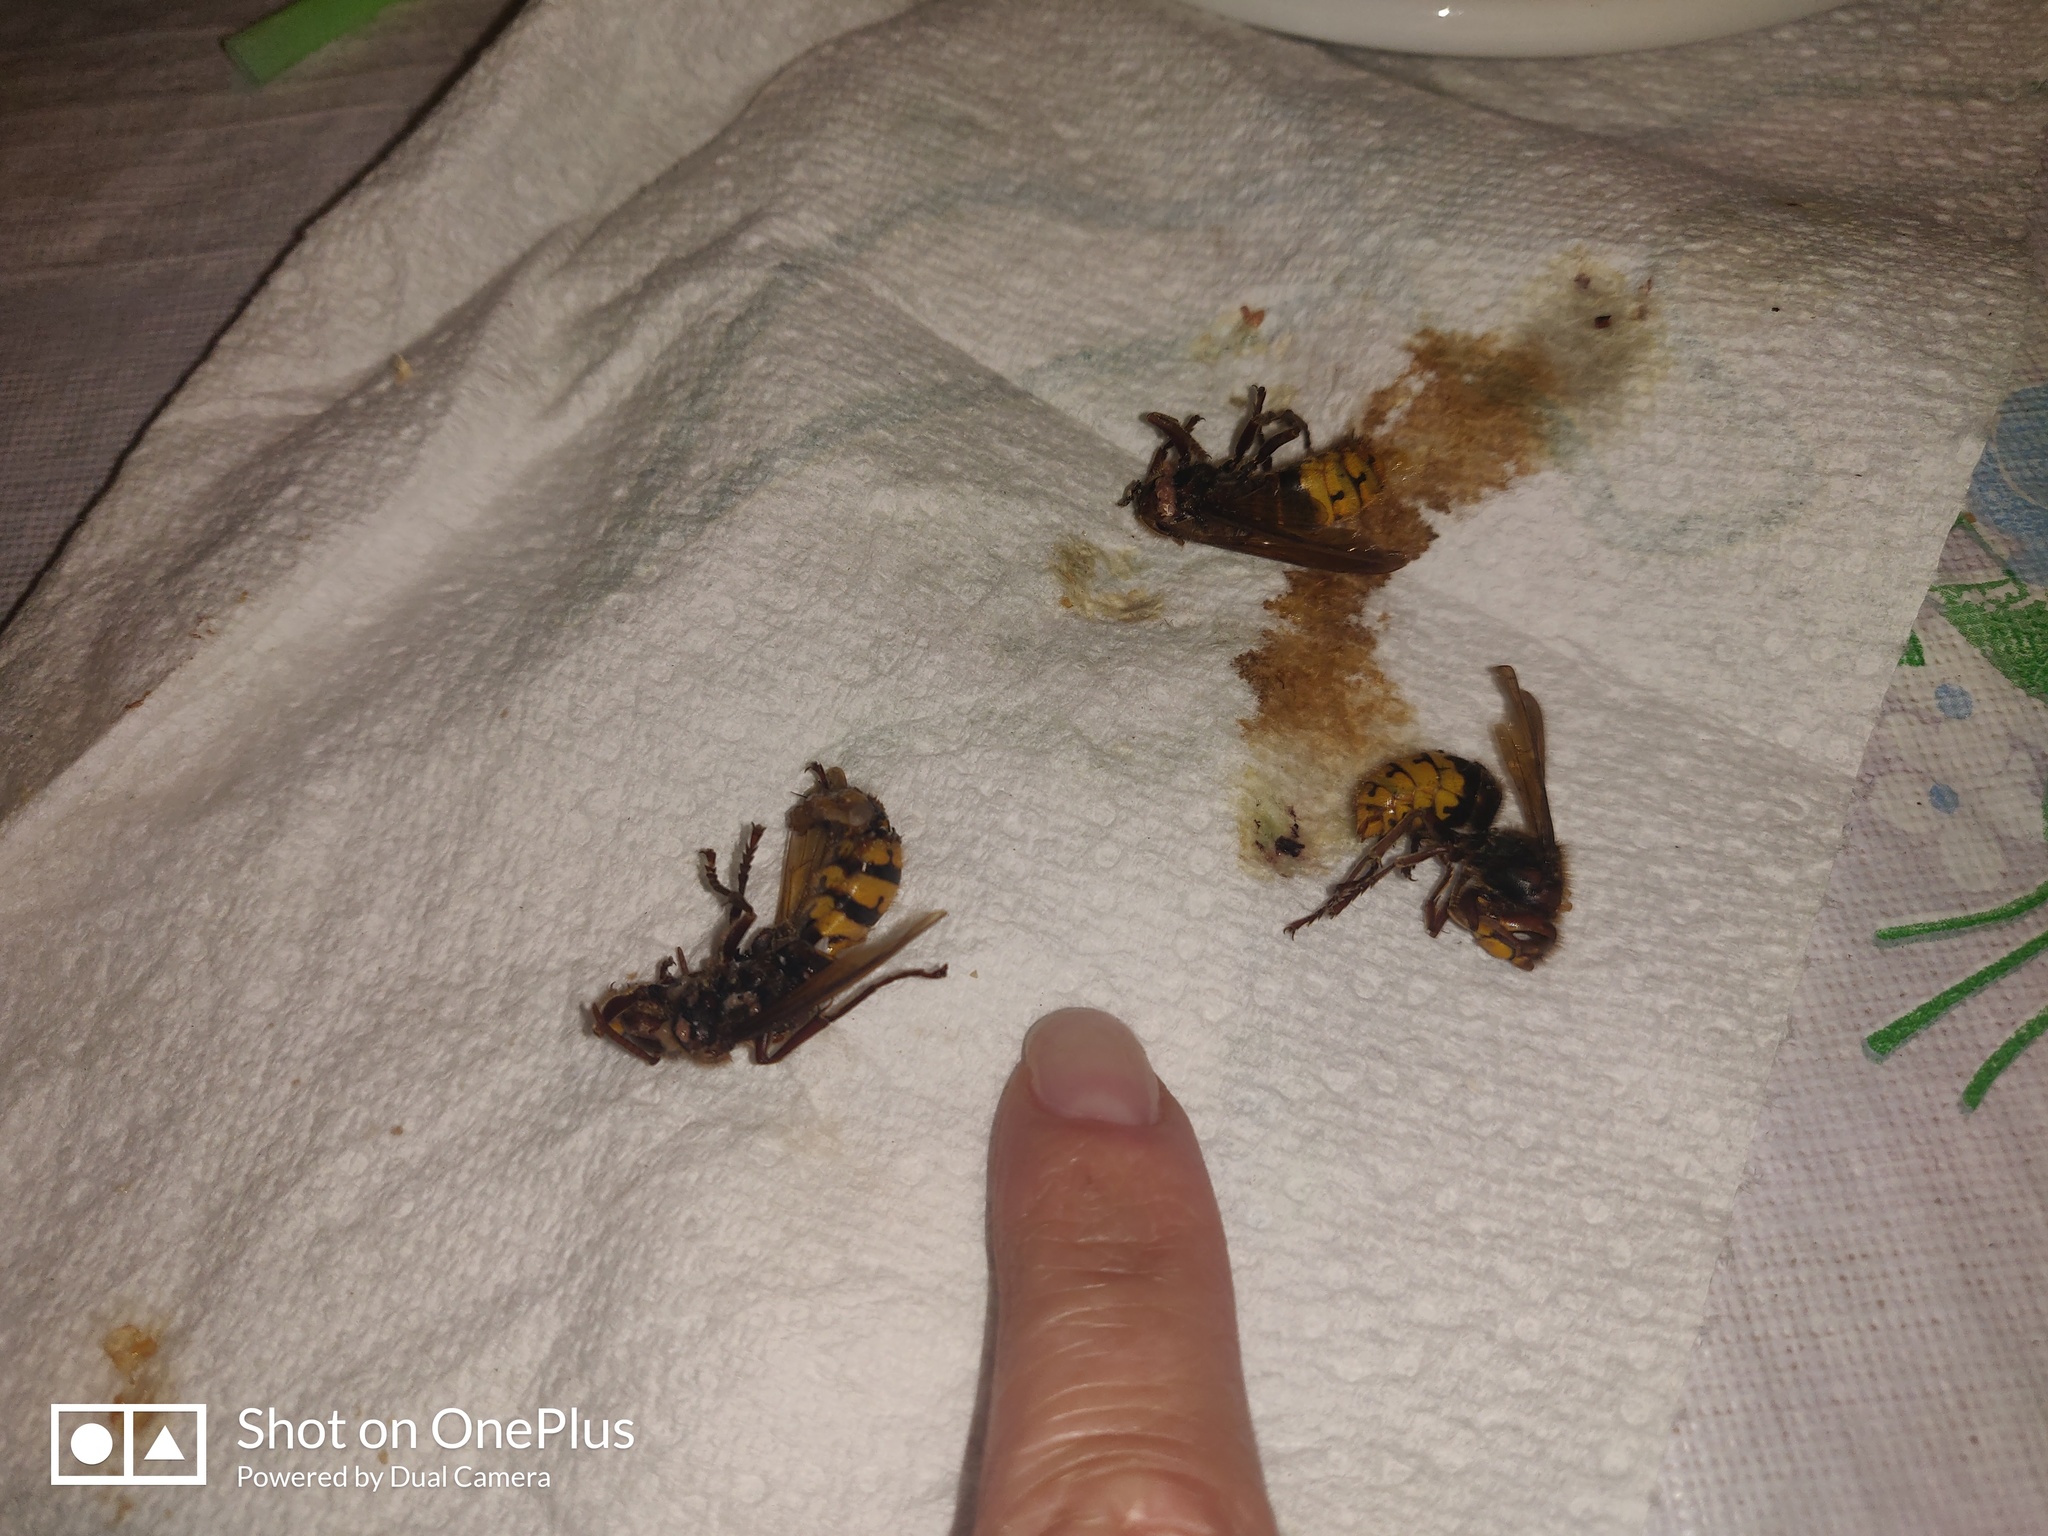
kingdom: Animalia
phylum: Arthropoda
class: Insecta
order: Hymenoptera
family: Vespidae
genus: Vespa
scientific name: Vespa crabro
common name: Hornet
